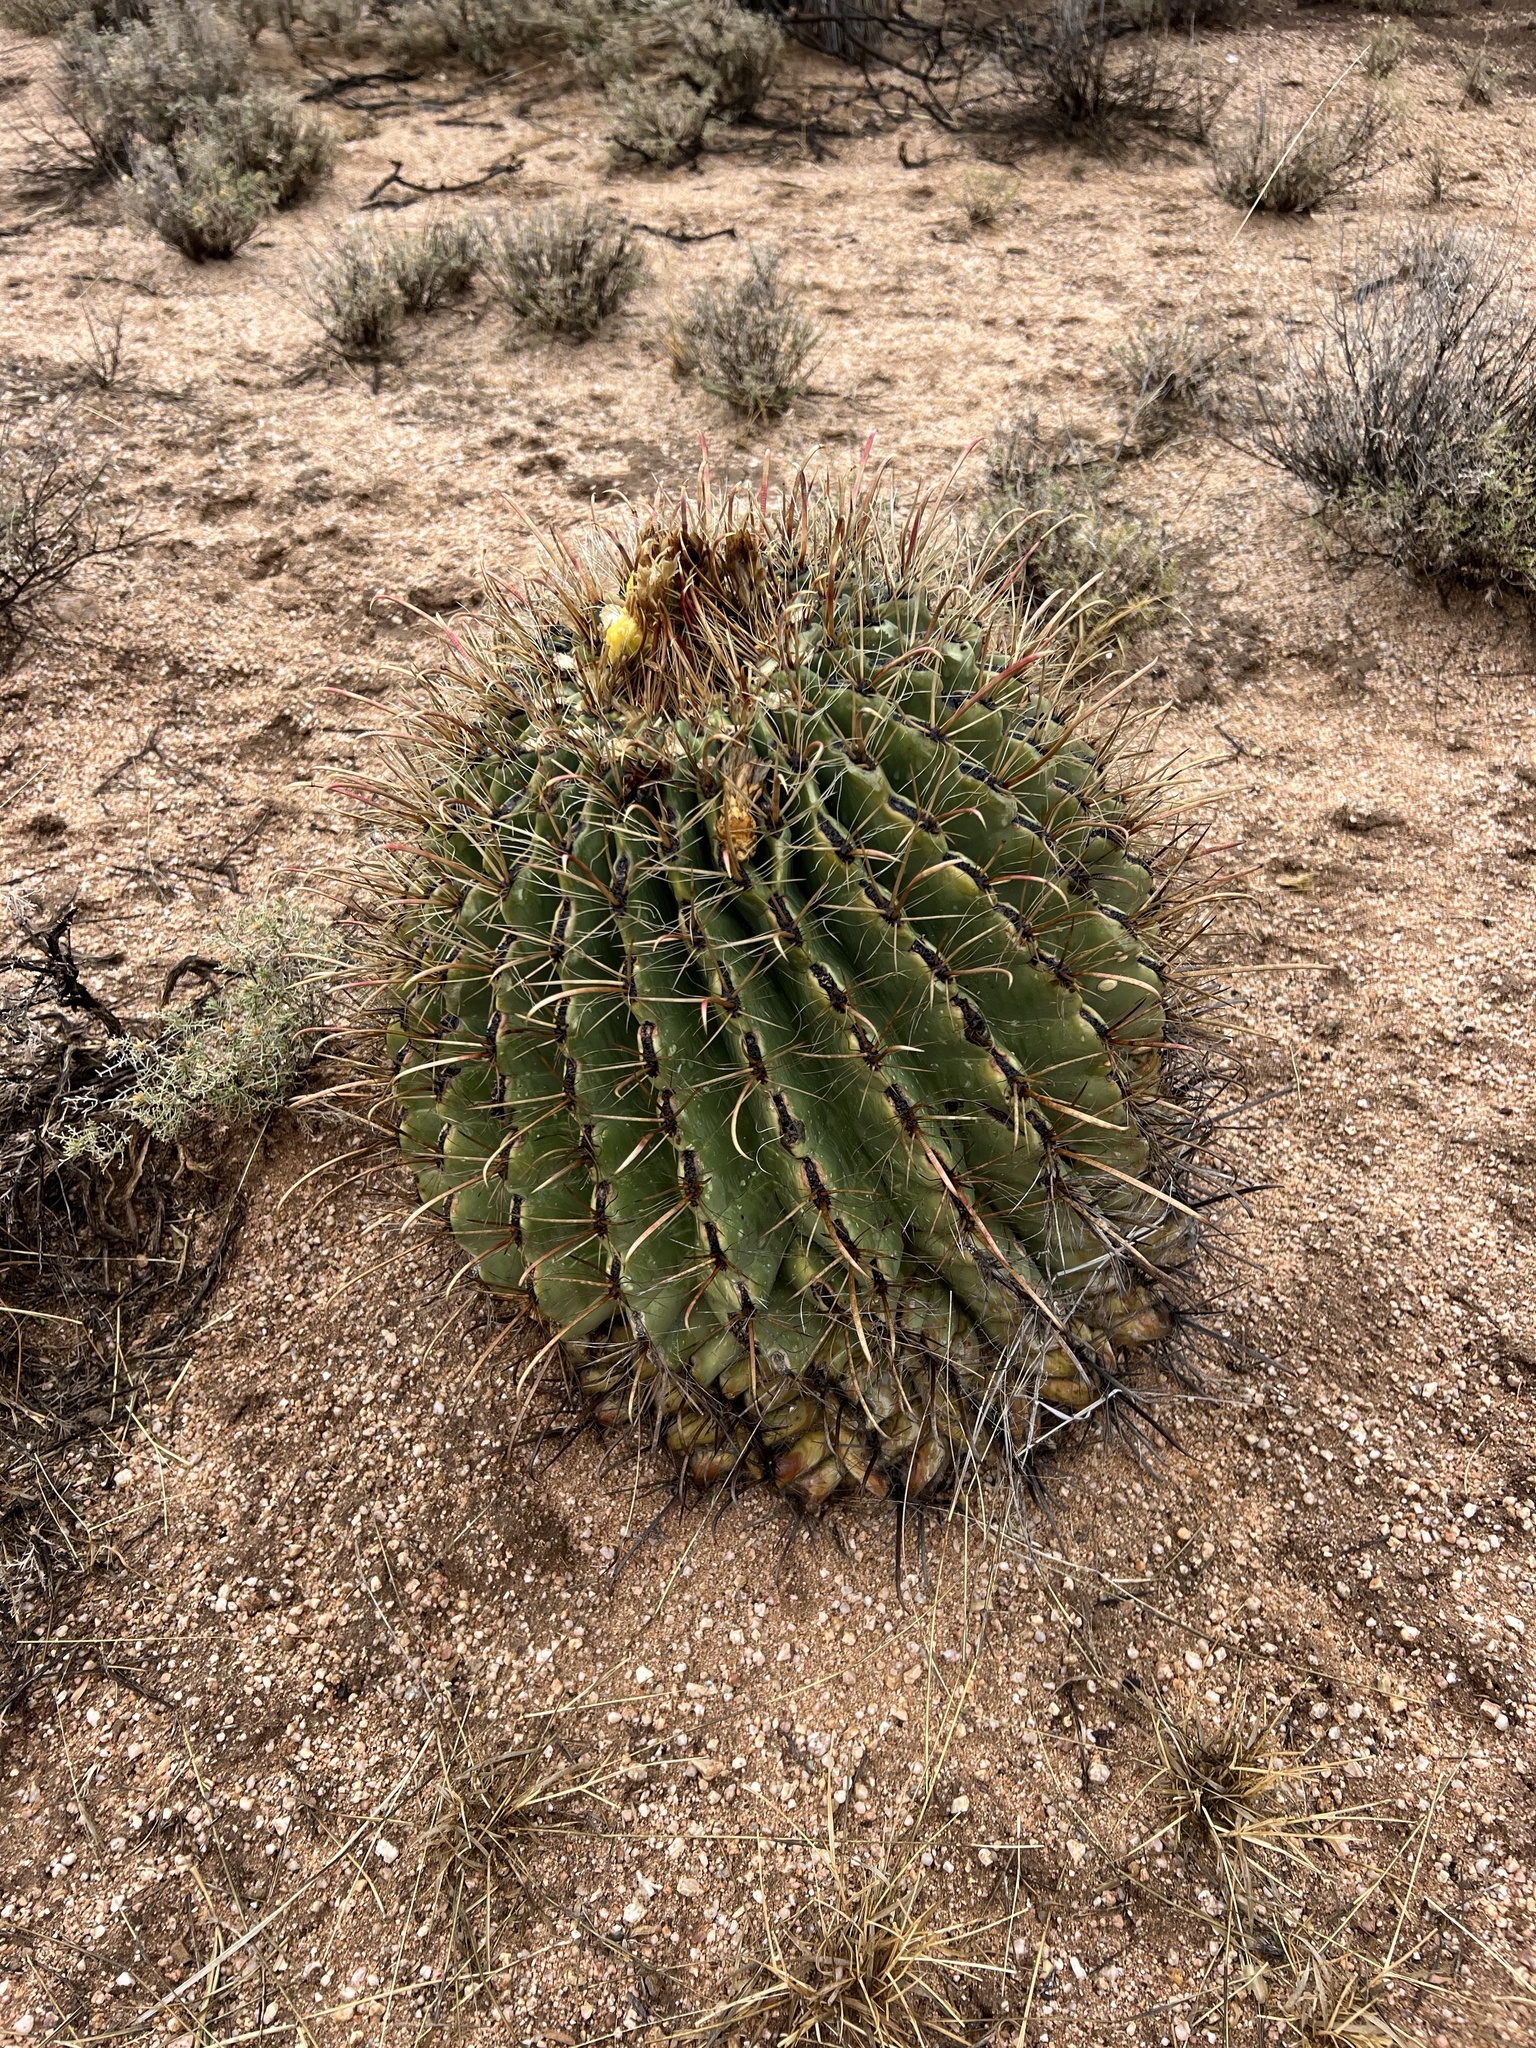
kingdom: Plantae
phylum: Tracheophyta
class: Magnoliopsida
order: Caryophyllales
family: Cactaceae
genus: Ferocactus
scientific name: Ferocactus wislizeni
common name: Candy barrel cactus
